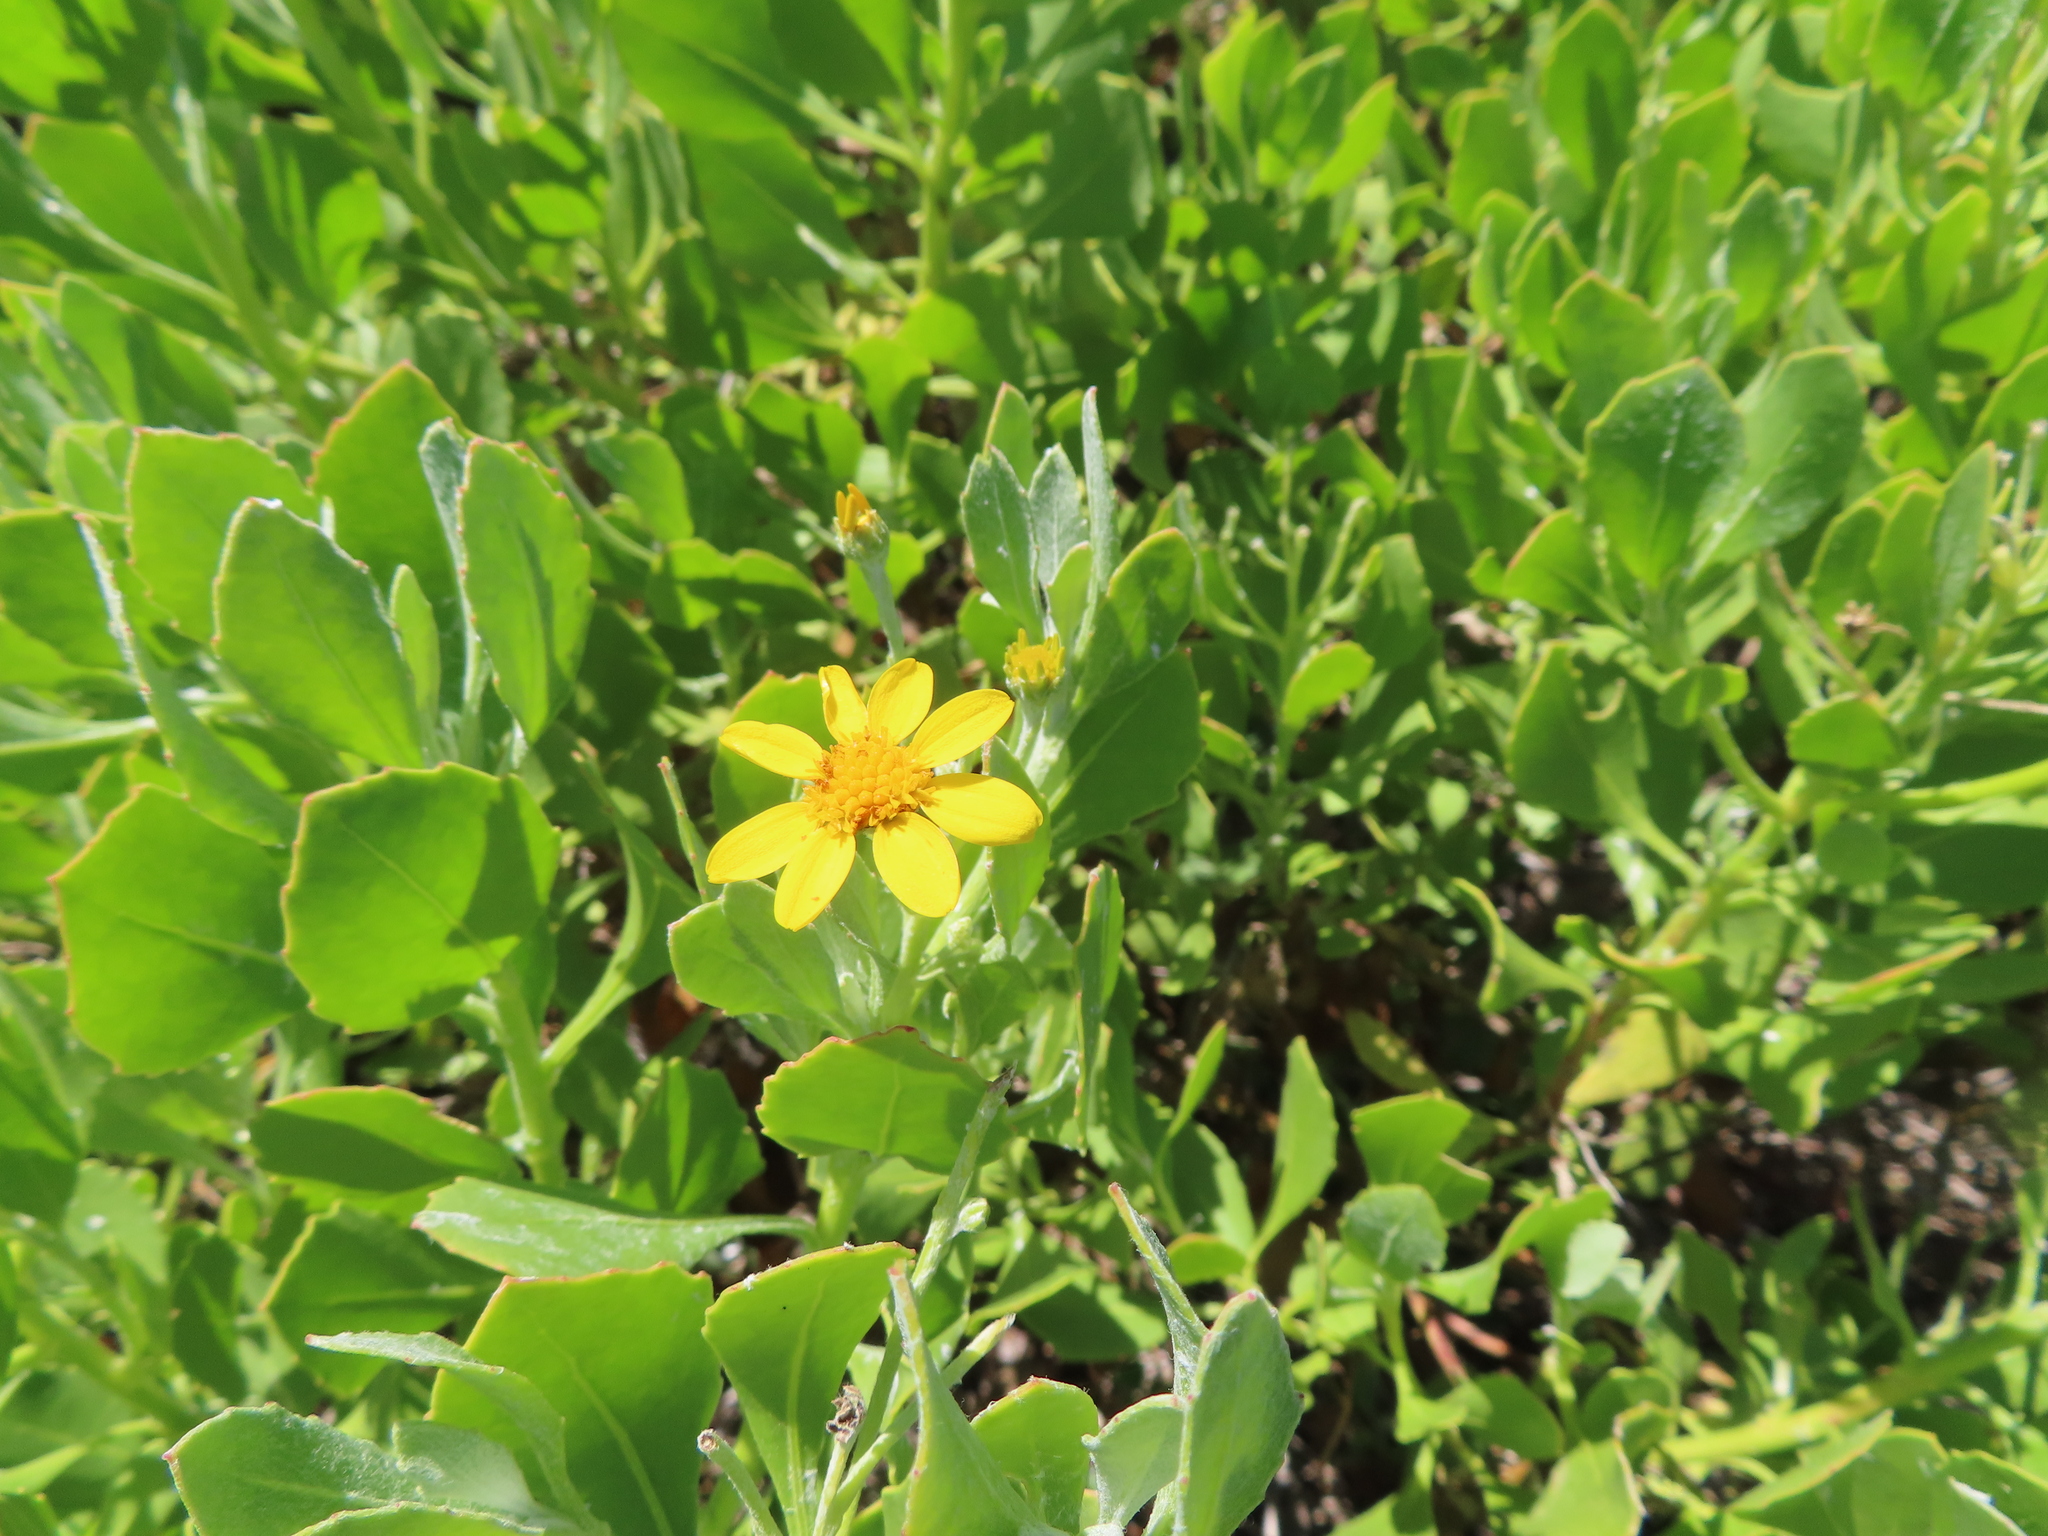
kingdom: Plantae
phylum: Tracheophyta
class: Magnoliopsida
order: Asterales
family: Asteraceae
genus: Osteospermum
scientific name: Osteospermum moniliferum
